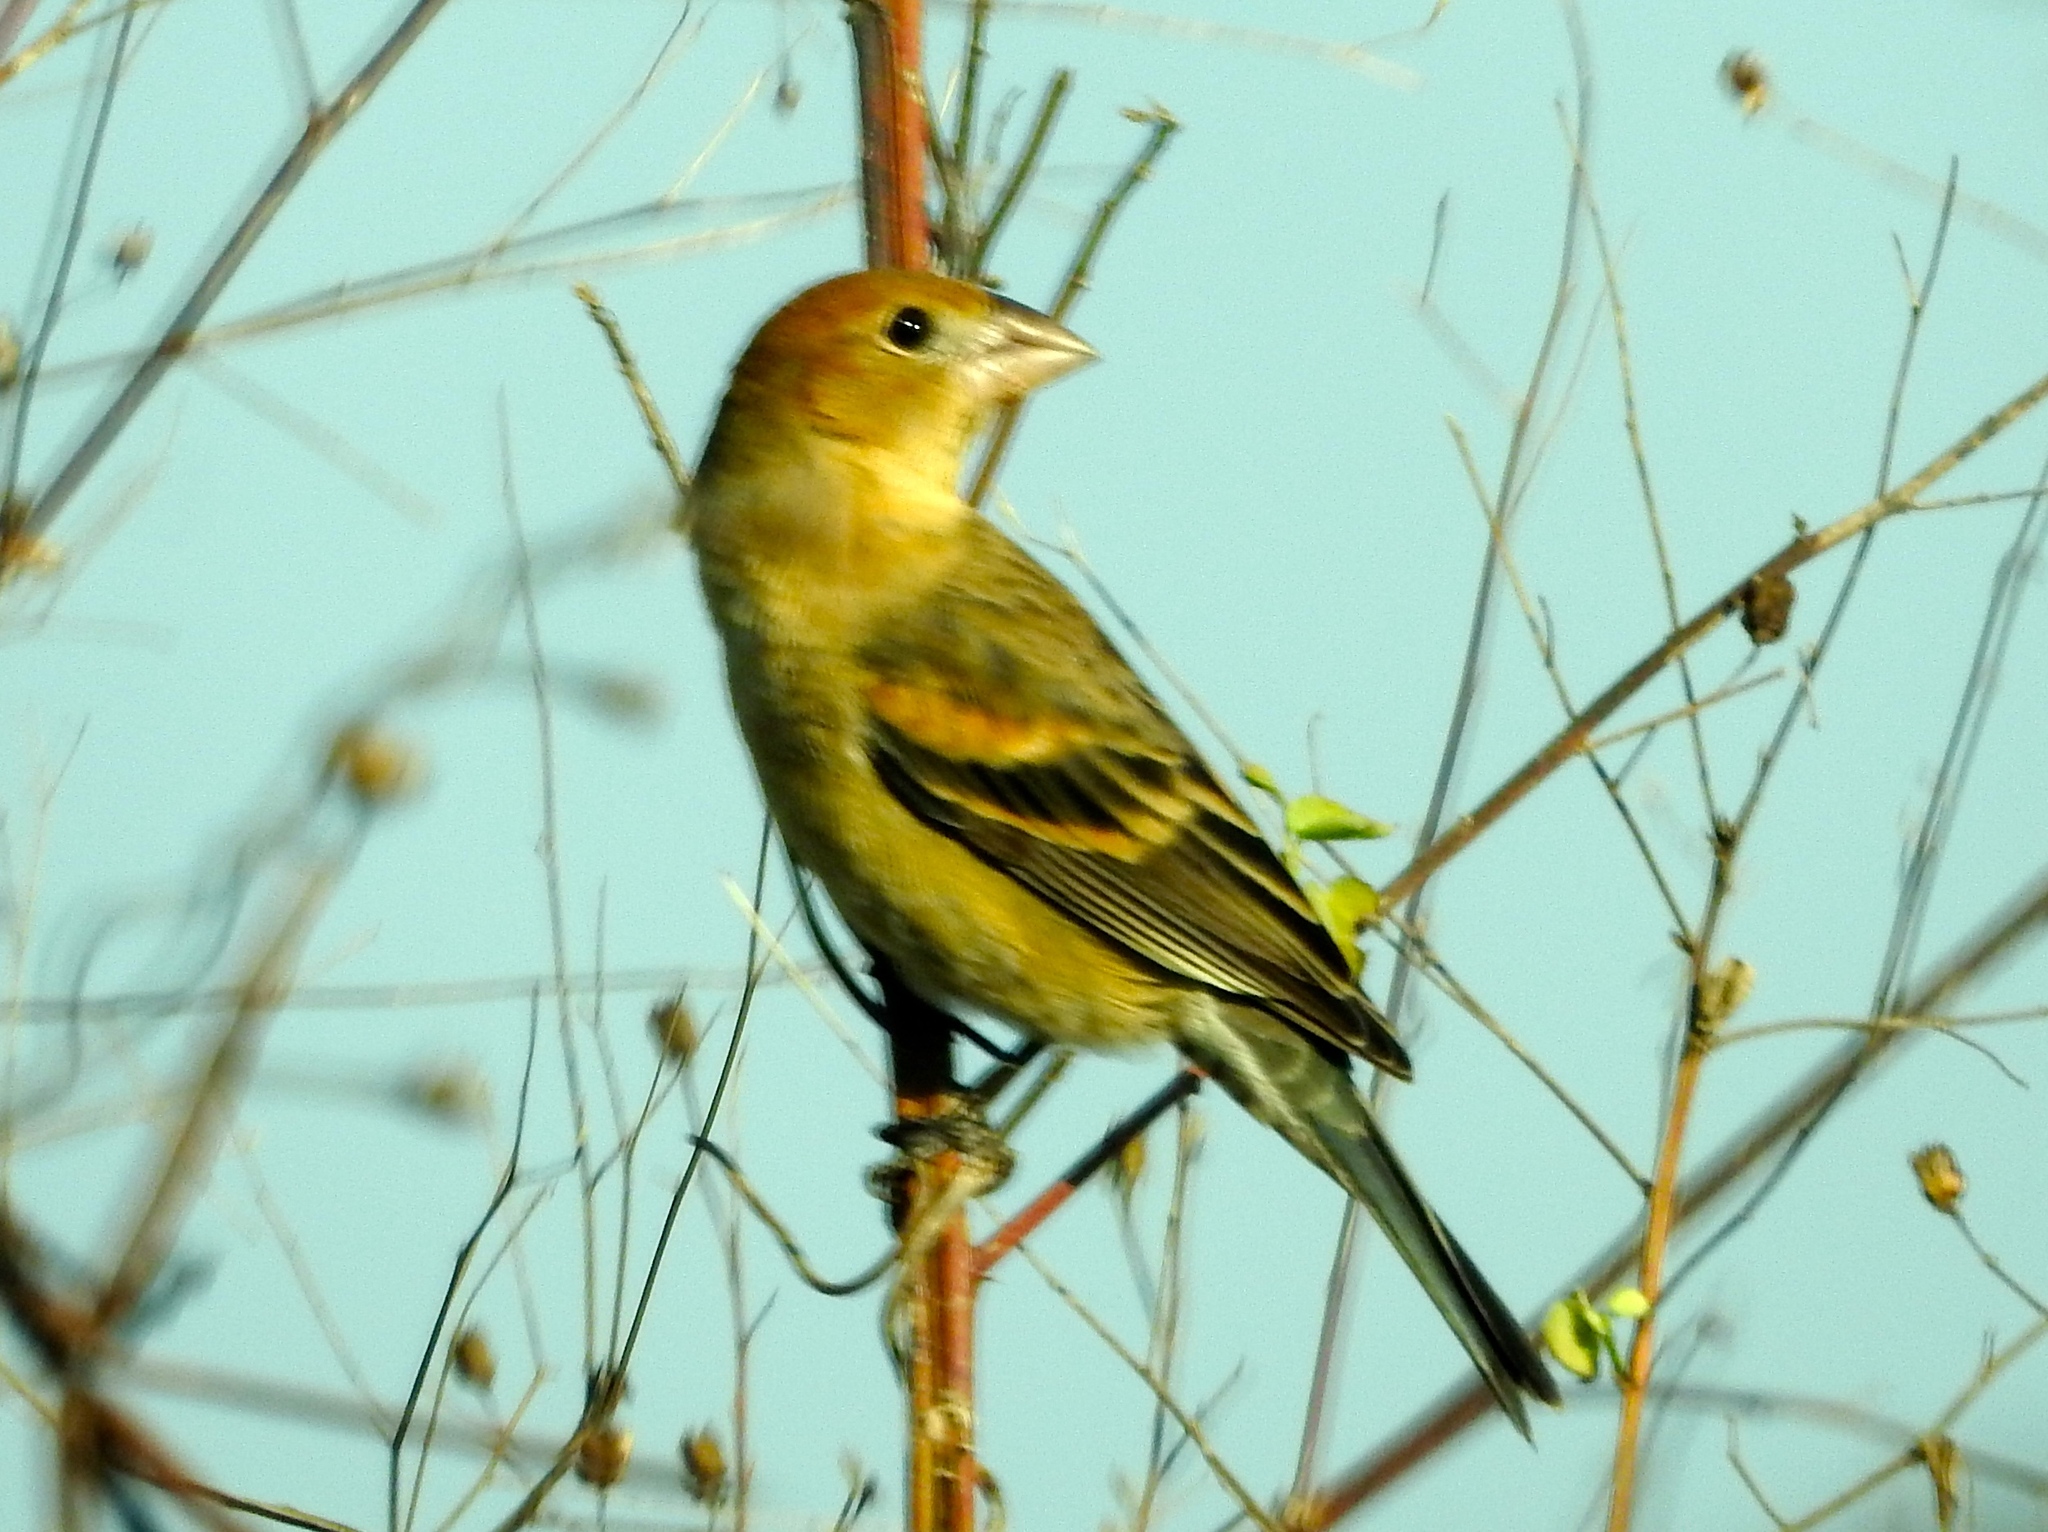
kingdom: Animalia
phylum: Chordata
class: Aves
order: Passeriformes
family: Cardinalidae
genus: Passerina
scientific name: Passerina caerulea
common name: Blue grosbeak
